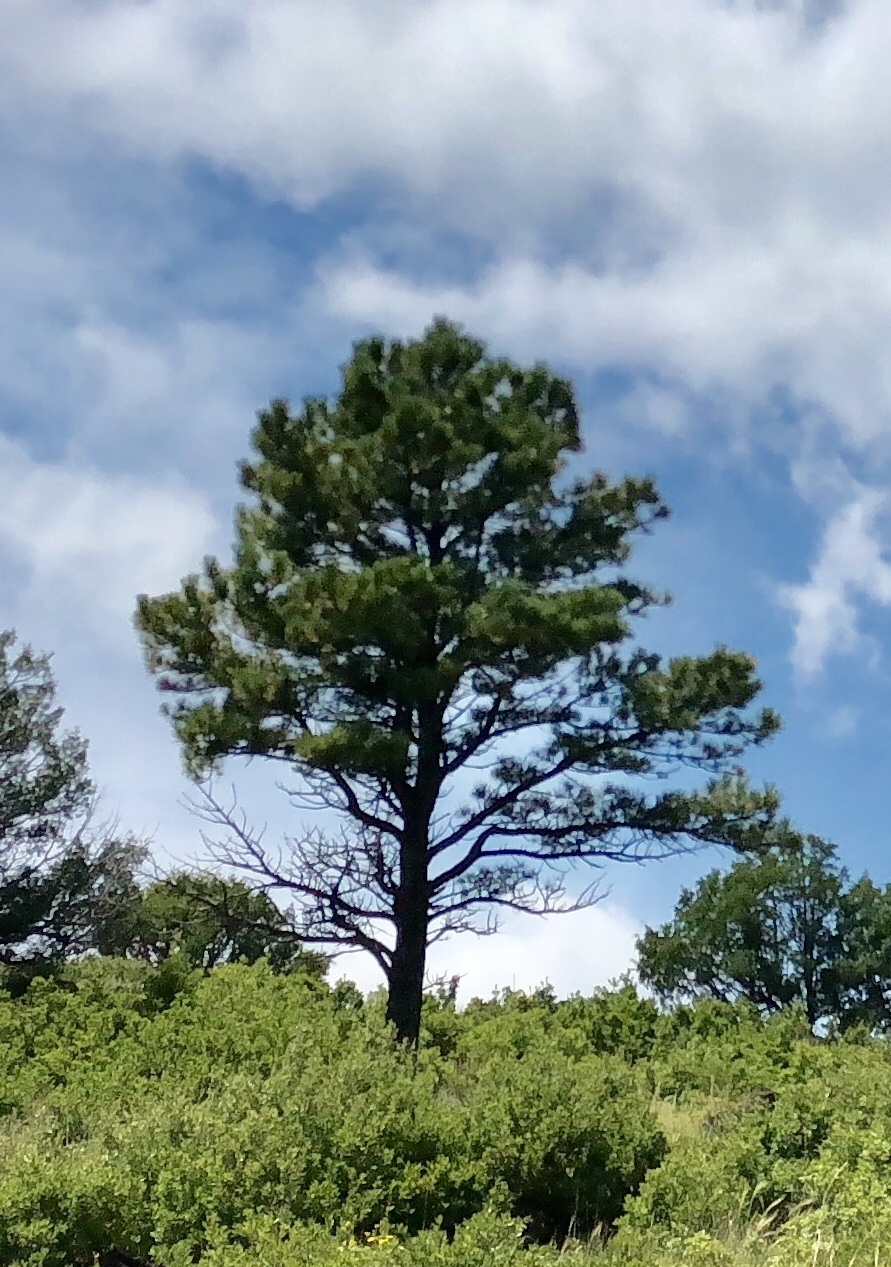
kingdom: Plantae
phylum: Tracheophyta
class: Pinopsida
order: Pinales
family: Pinaceae
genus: Pinus
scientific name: Pinus ponderosa
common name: Western yellow-pine
